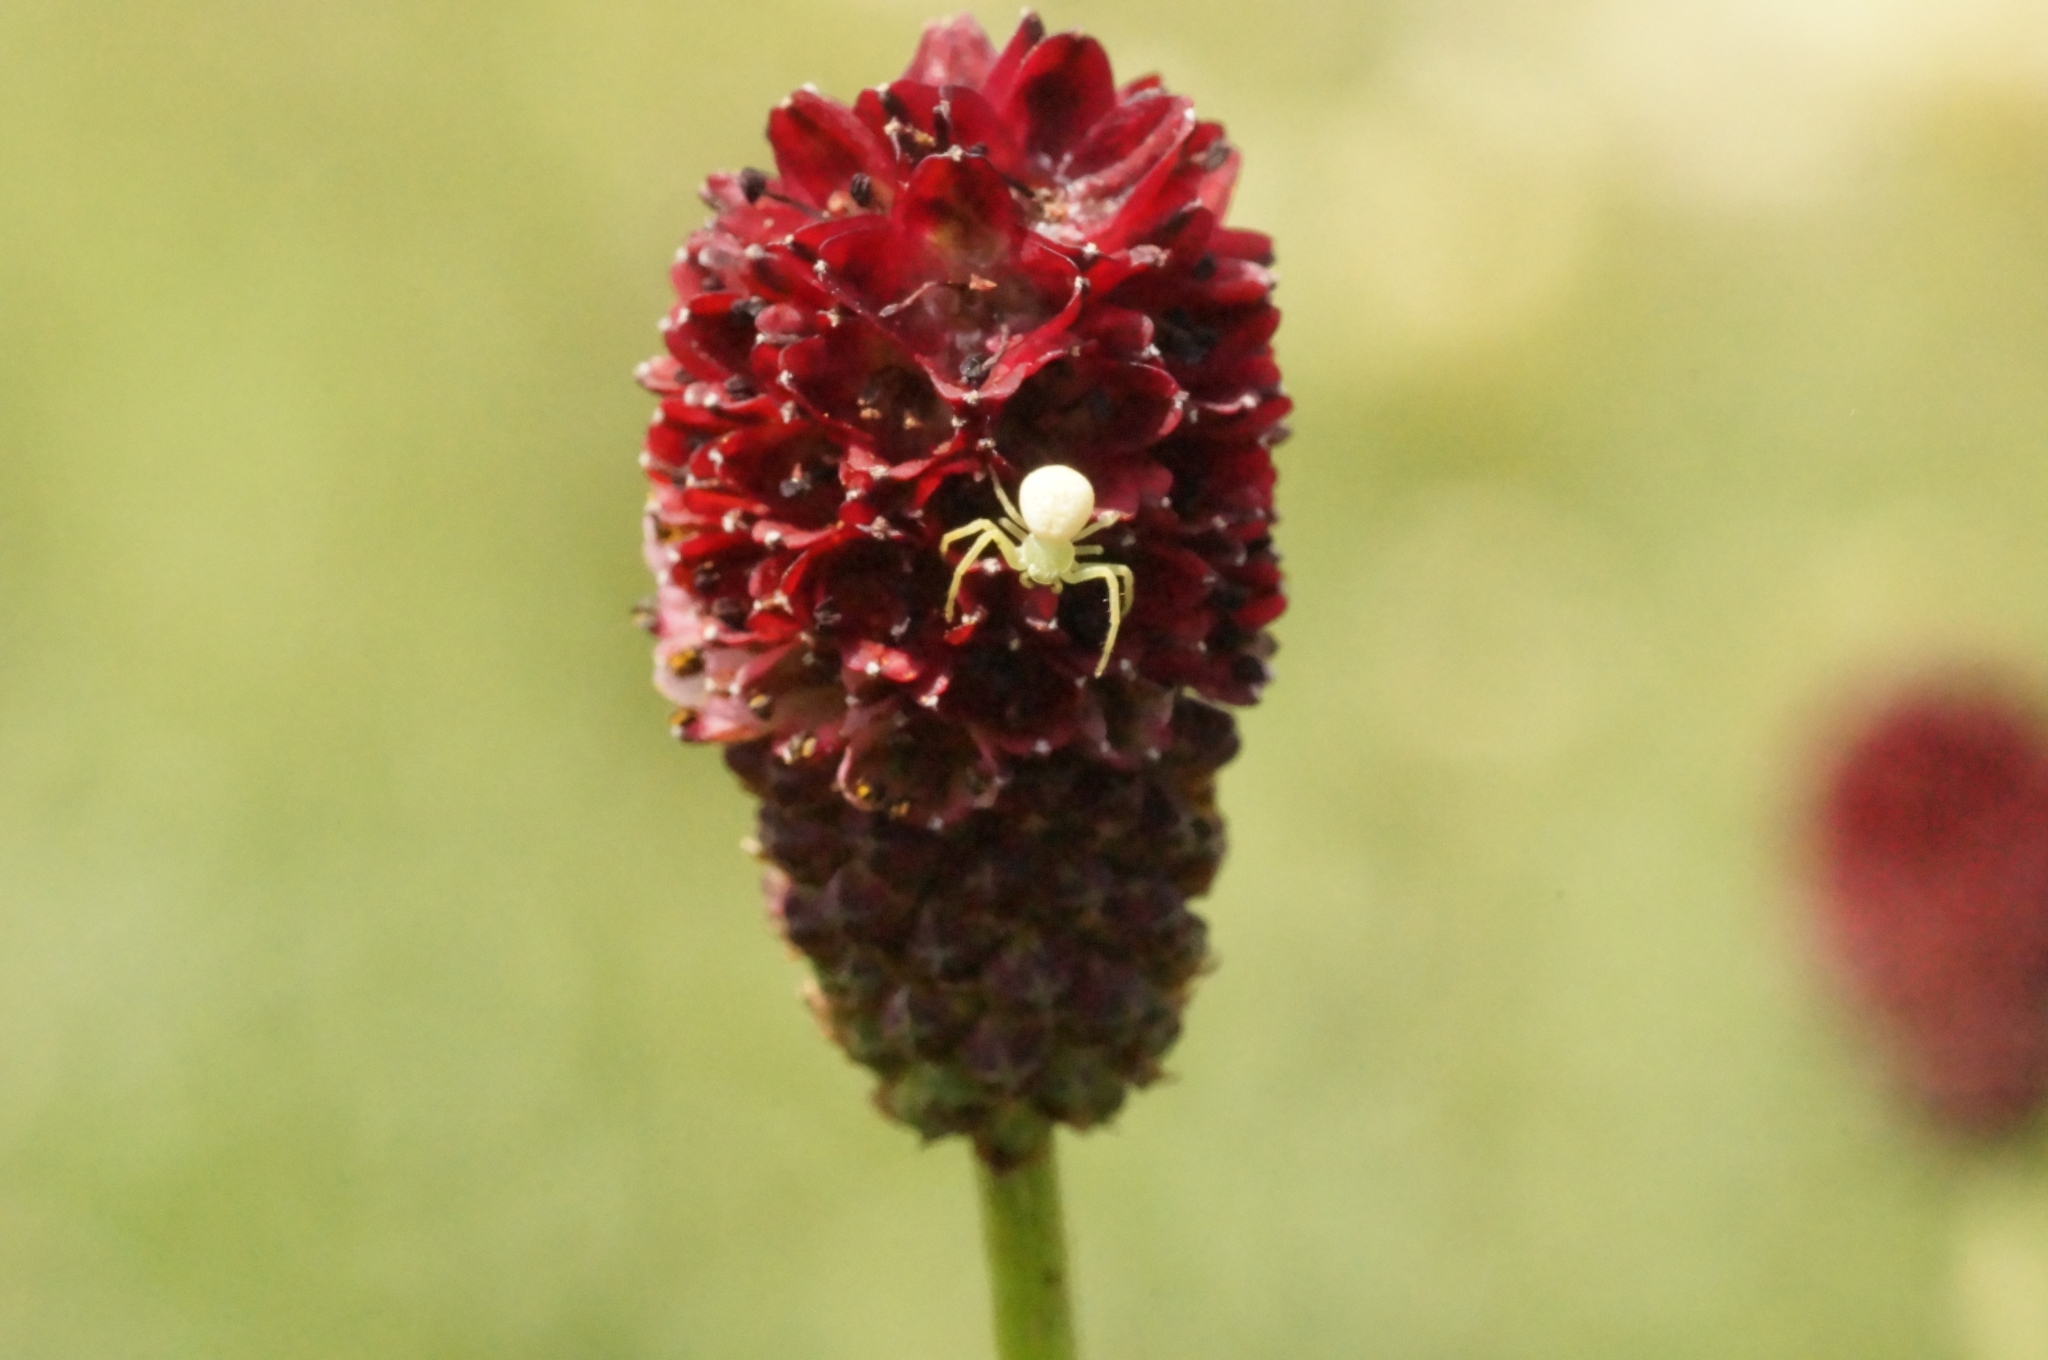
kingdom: Animalia
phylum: Arthropoda
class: Arachnida
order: Araneae
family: Thomisidae
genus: Misumena
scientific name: Misumena vatia
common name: Goldenrod crab spider
